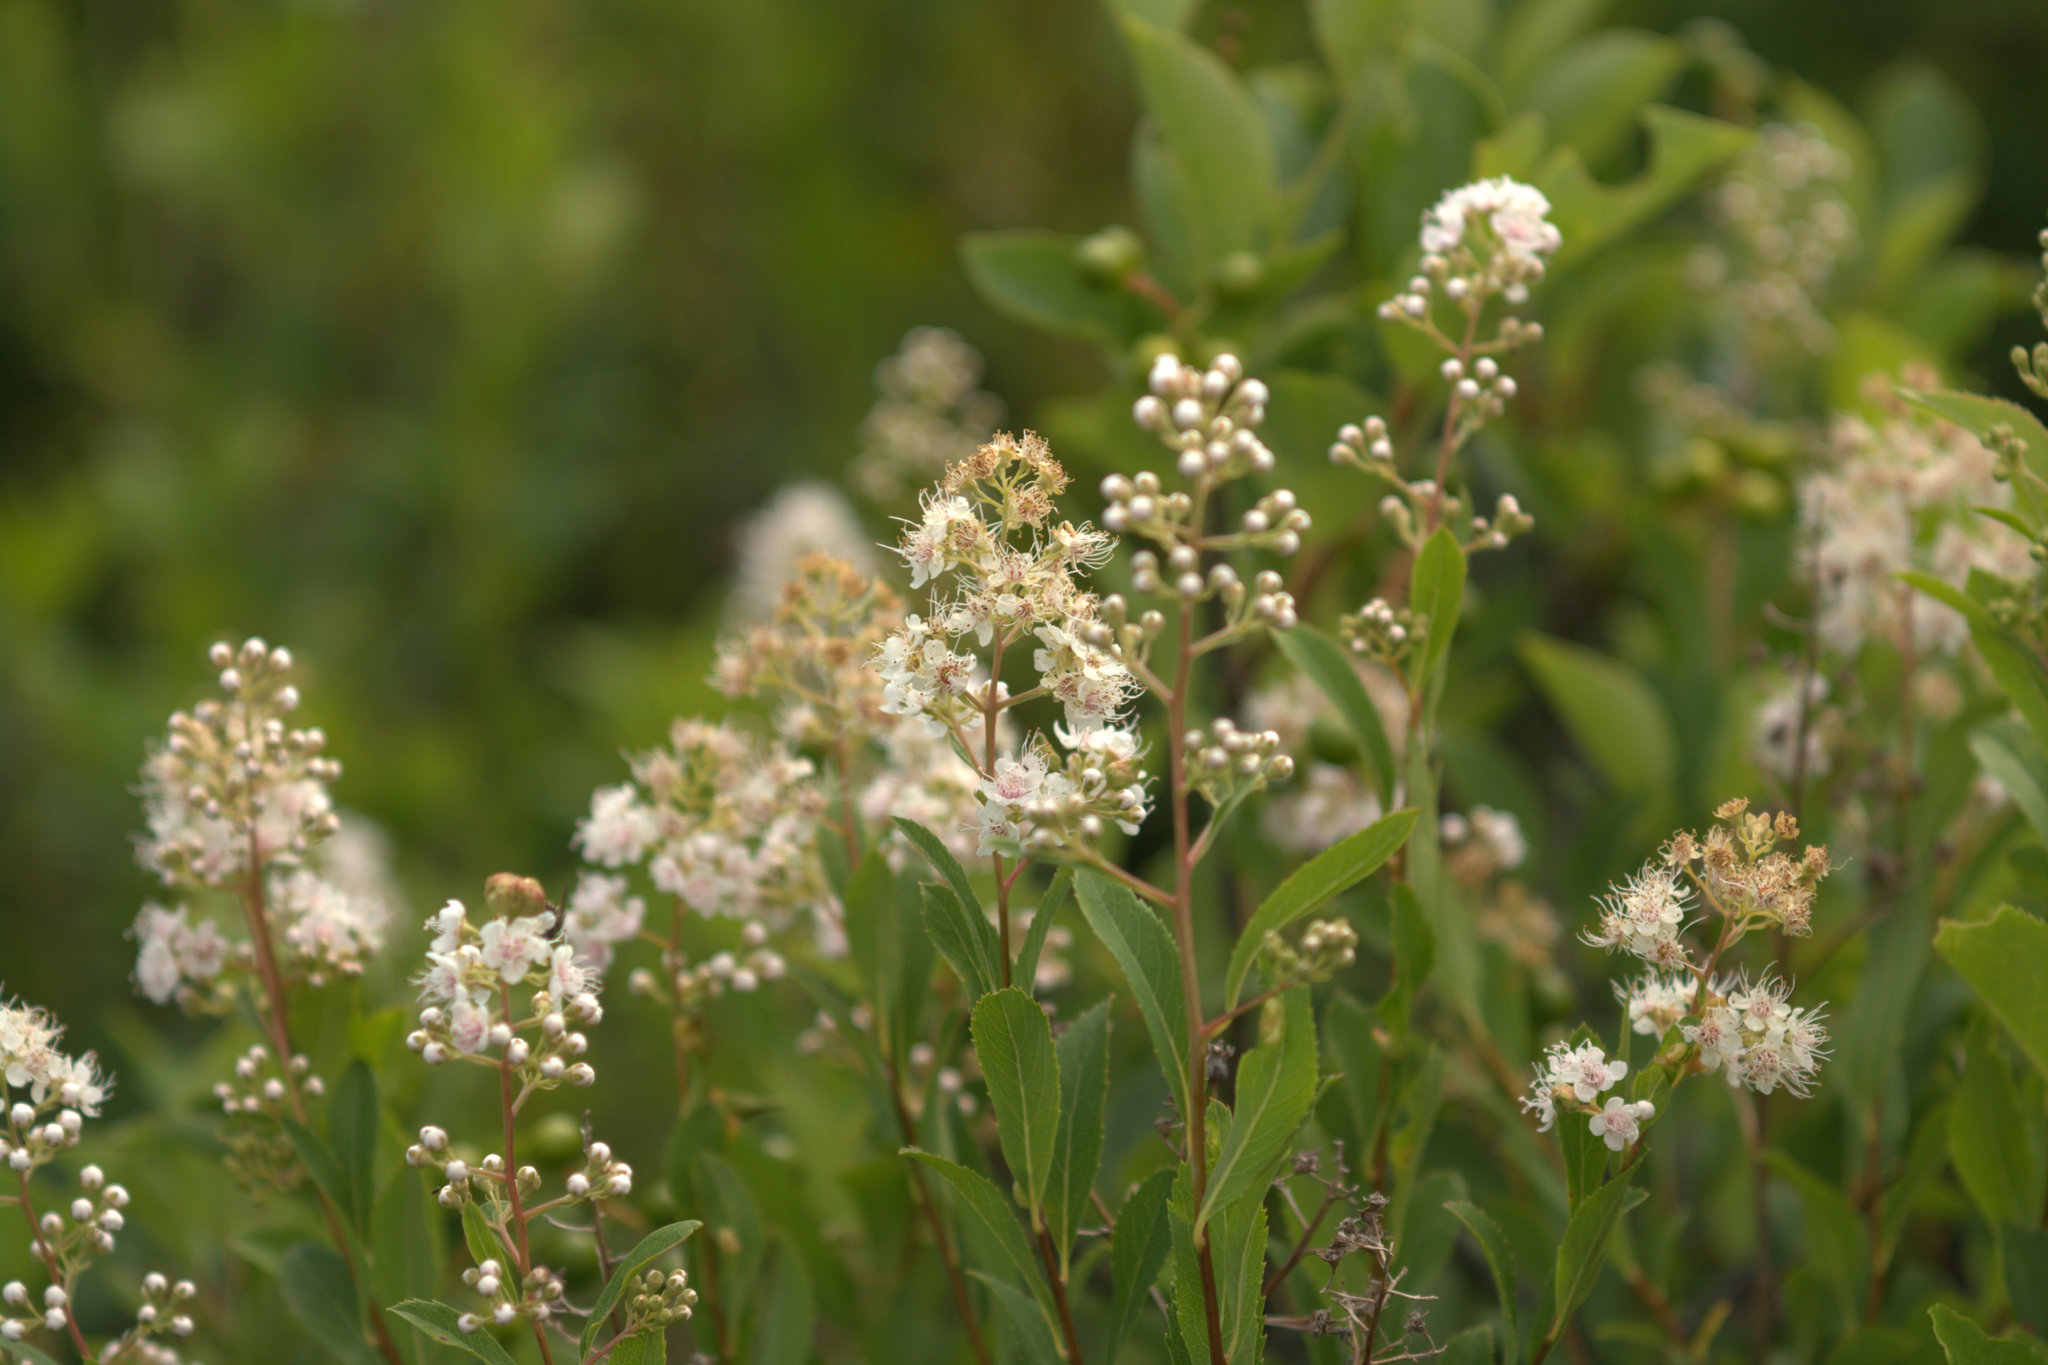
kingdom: Plantae
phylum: Tracheophyta
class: Magnoliopsida
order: Rosales
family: Rosaceae
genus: Spiraea
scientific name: Spiraea alba
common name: Pale bridewort
